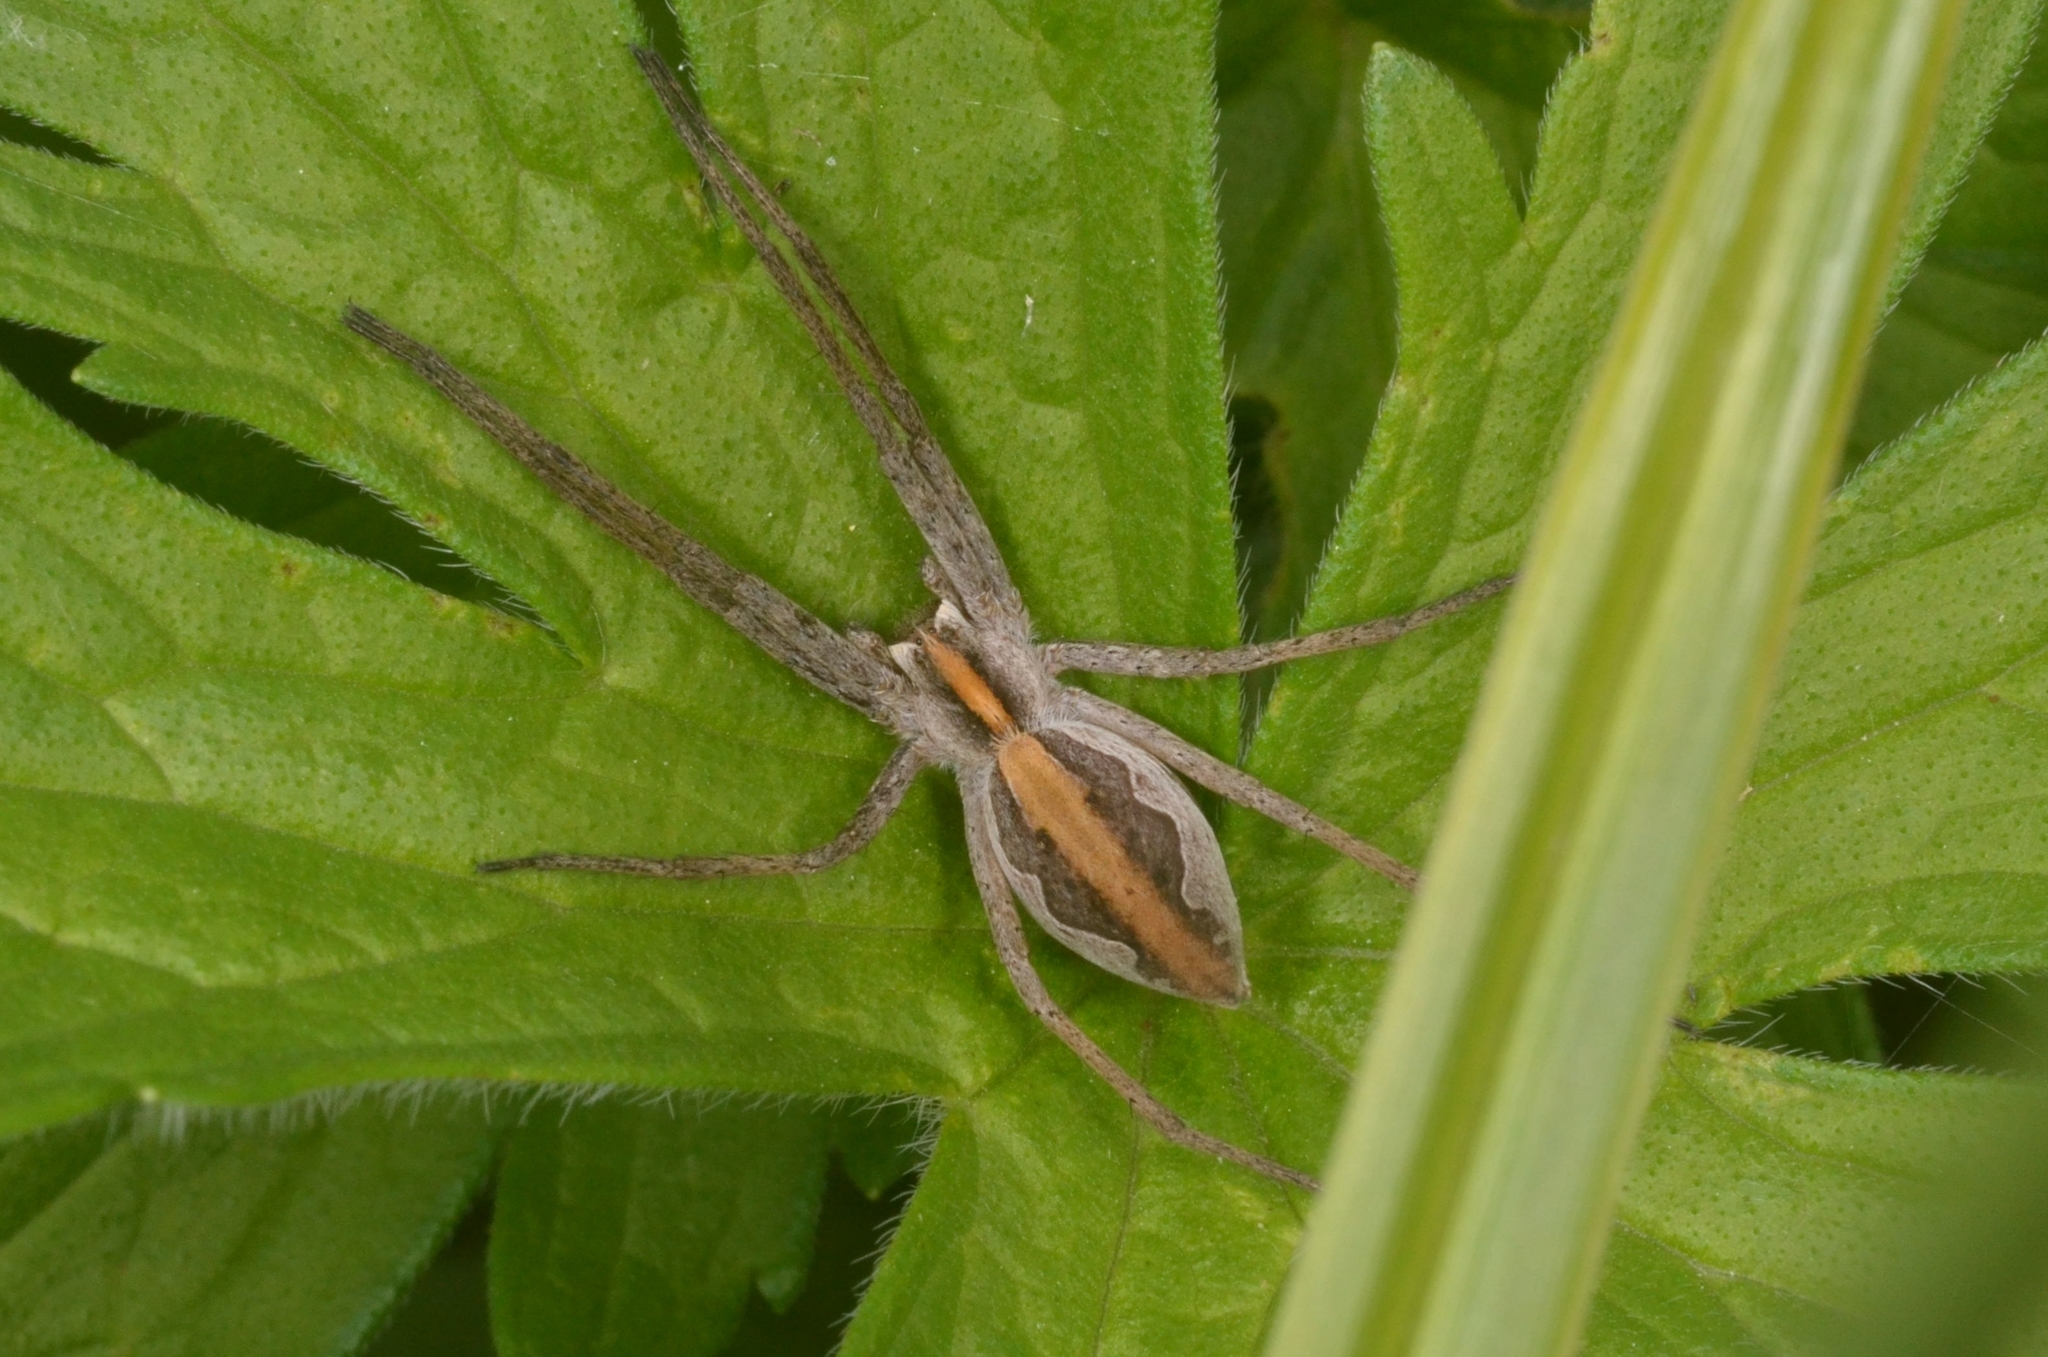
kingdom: Animalia
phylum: Arthropoda
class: Arachnida
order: Araneae
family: Pisauridae
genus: Pisaura
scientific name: Pisaura mirabilis
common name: Tent spider
